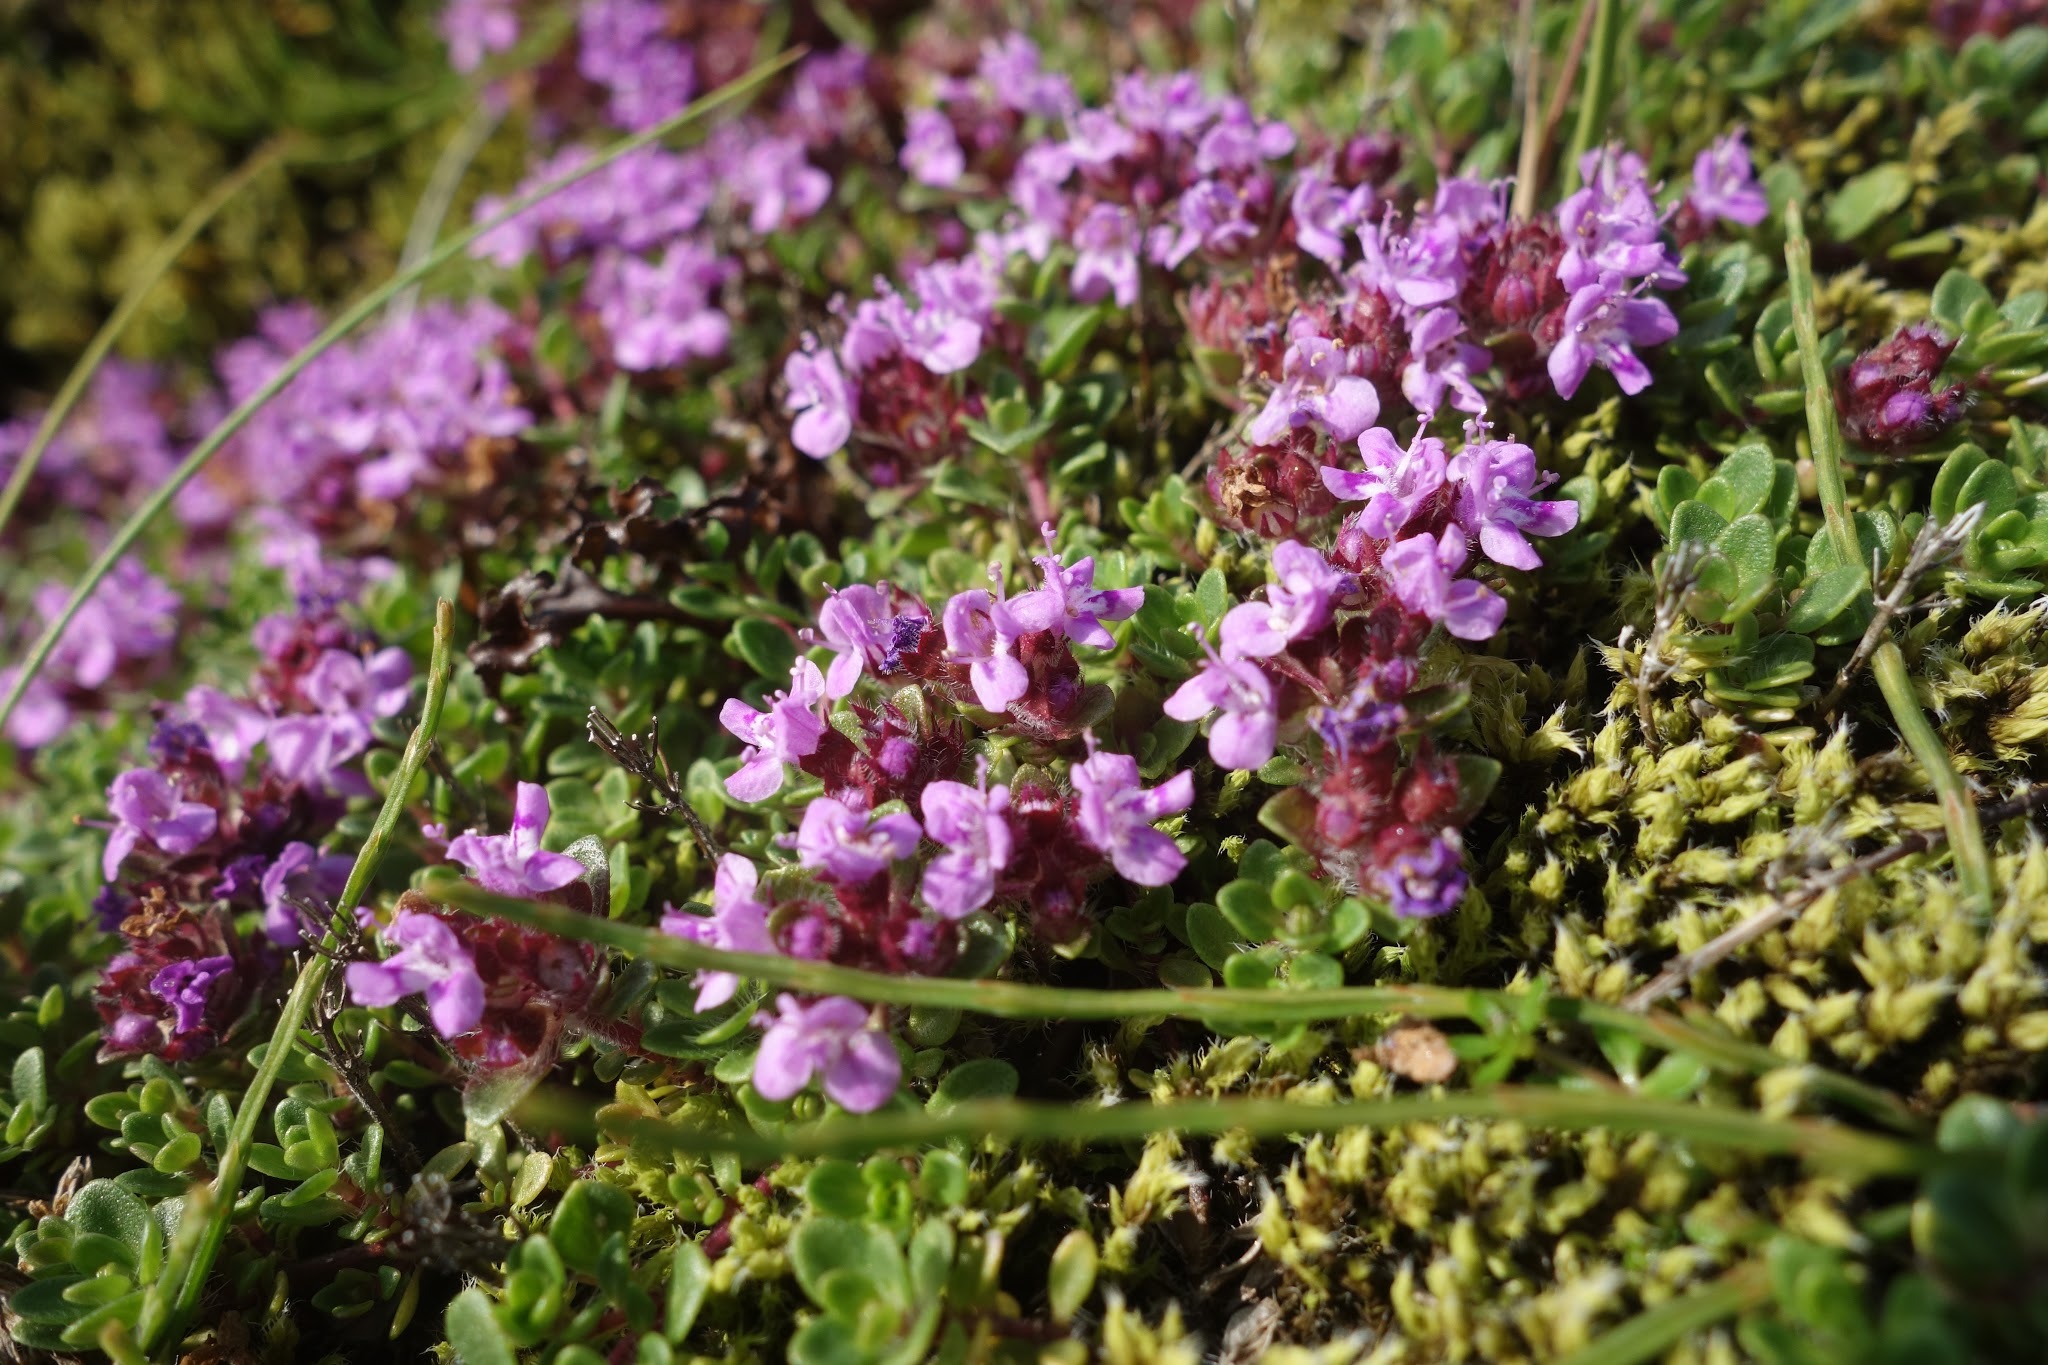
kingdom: Plantae
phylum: Tracheophyta
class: Magnoliopsida
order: Lamiales
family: Lamiaceae
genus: Thymus
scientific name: Thymus praecox
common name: Wild thyme
